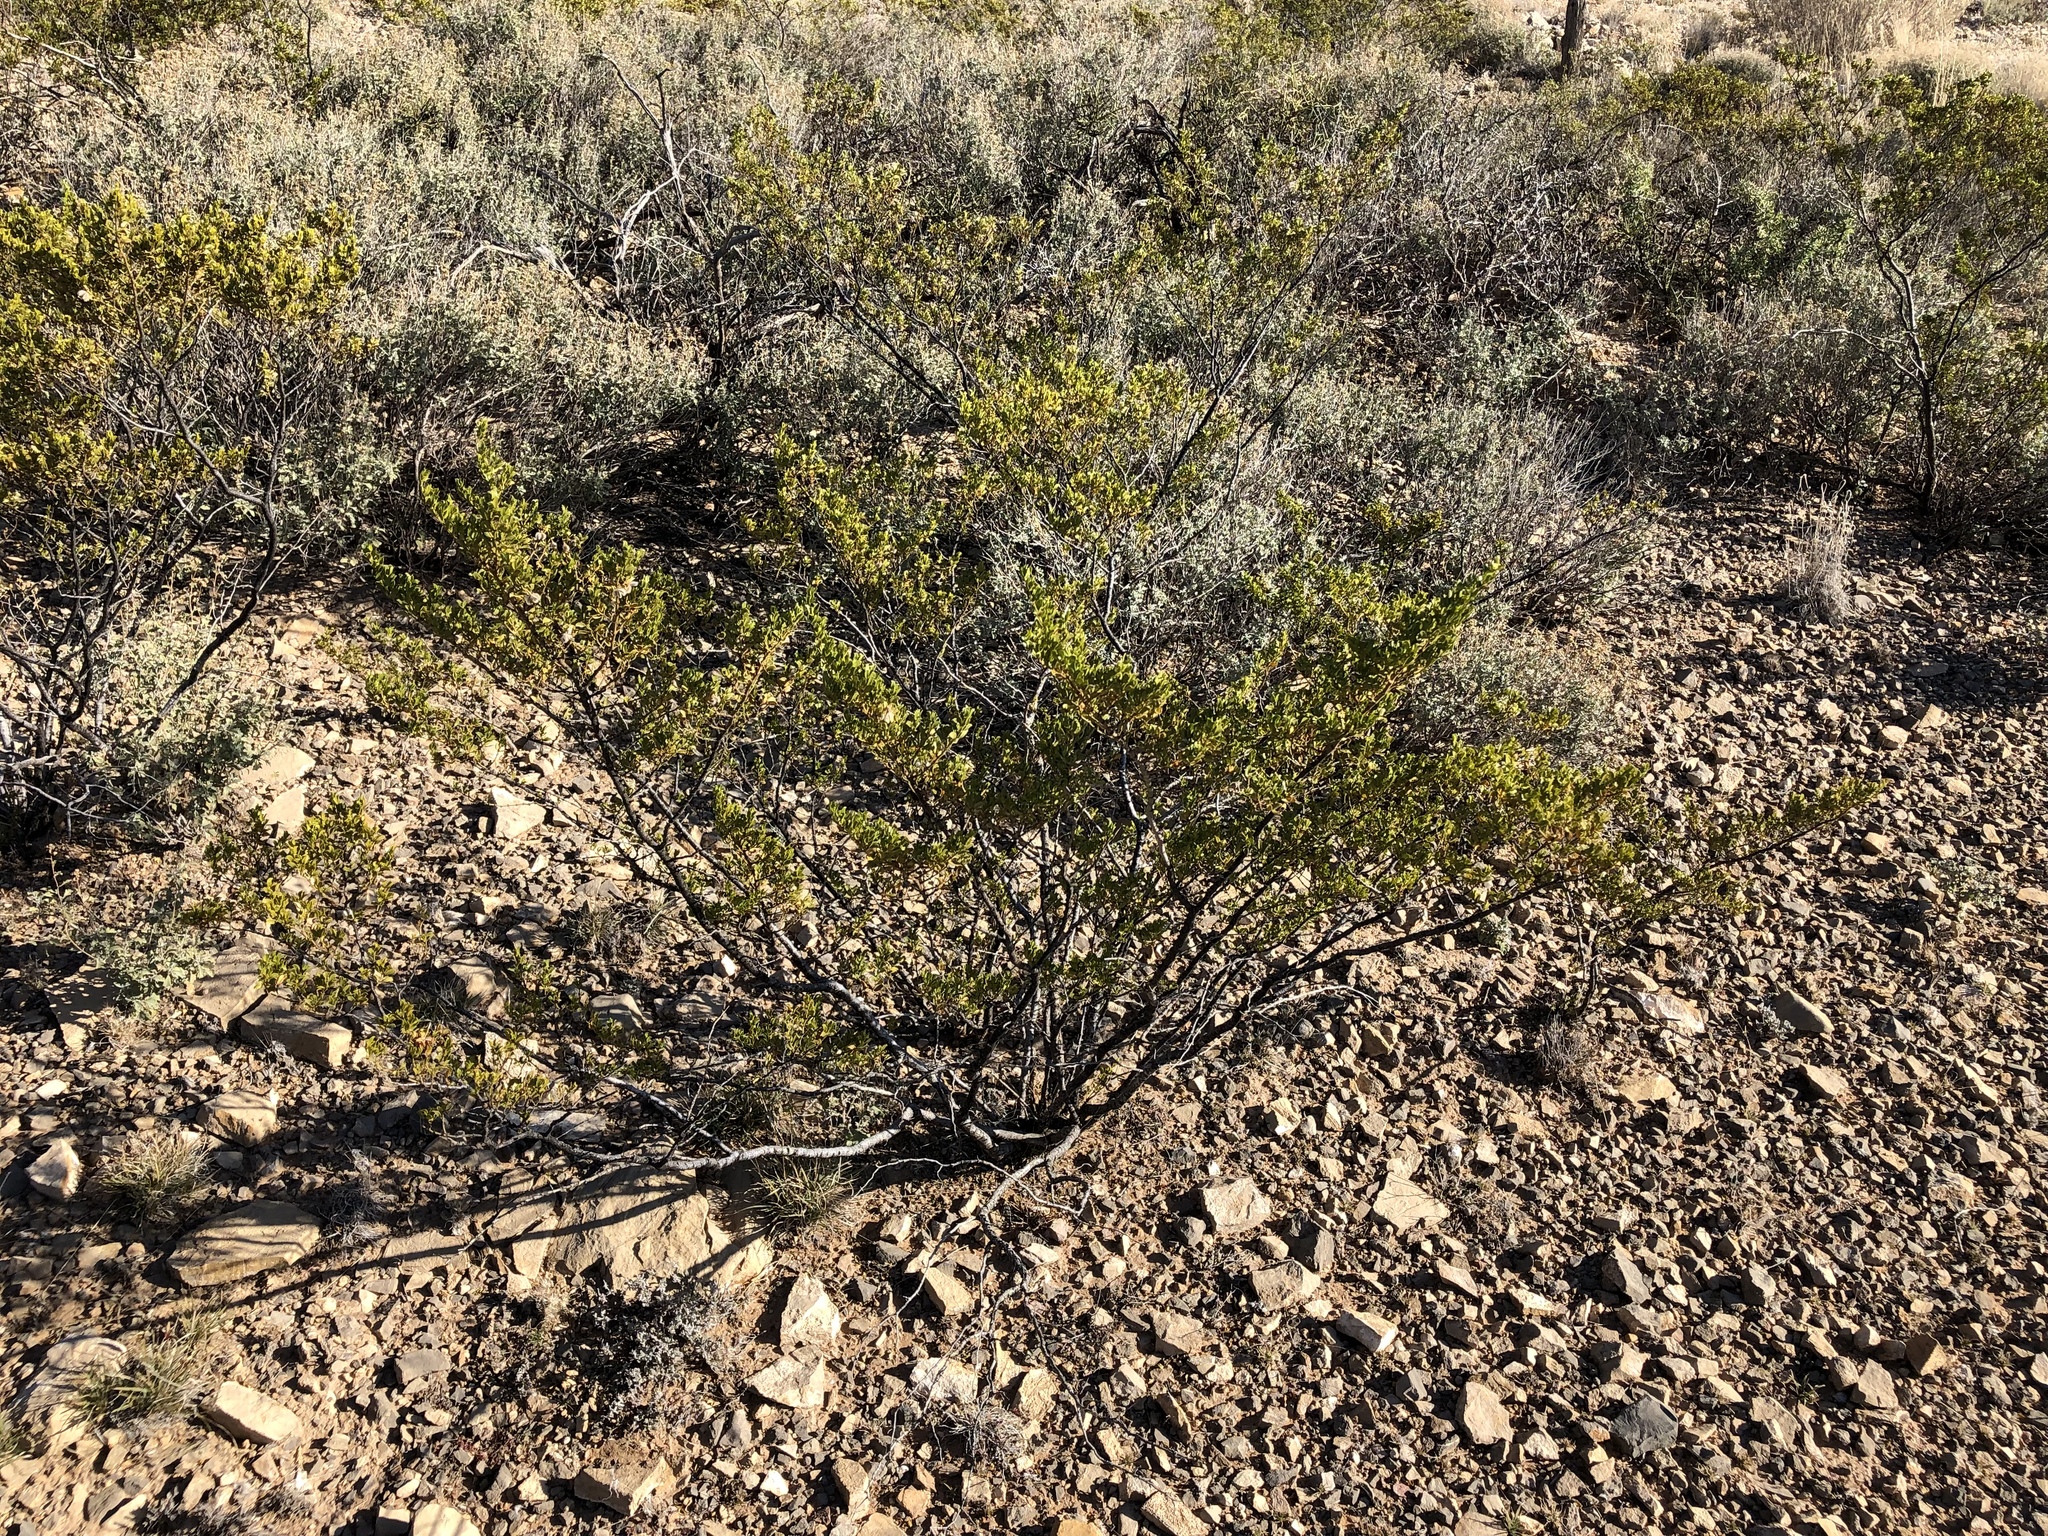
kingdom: Plantae
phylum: Tracheophyta
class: Magnoliopsida
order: Zygophyllales
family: Zygophyllaceae
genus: Larrea
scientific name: Larrea tridentata
